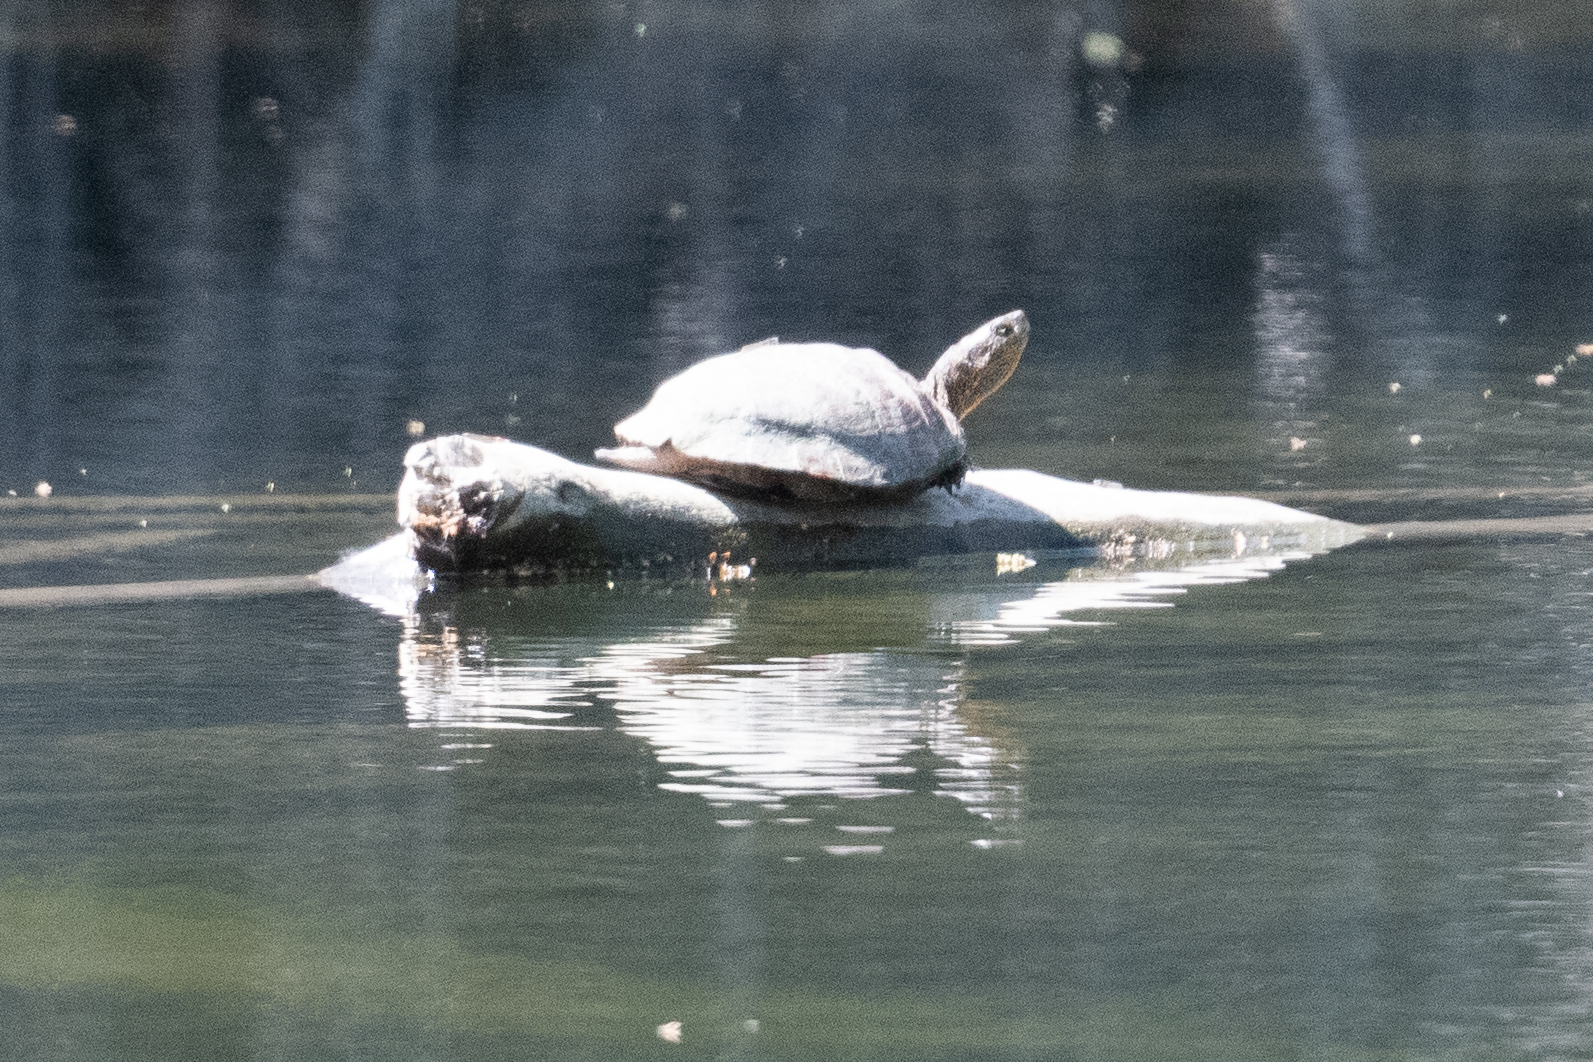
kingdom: Animalia
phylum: Chordata
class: Testudines
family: Emydidae
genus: Actinemys
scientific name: Actinemys marmorata
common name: Western pond turtle
